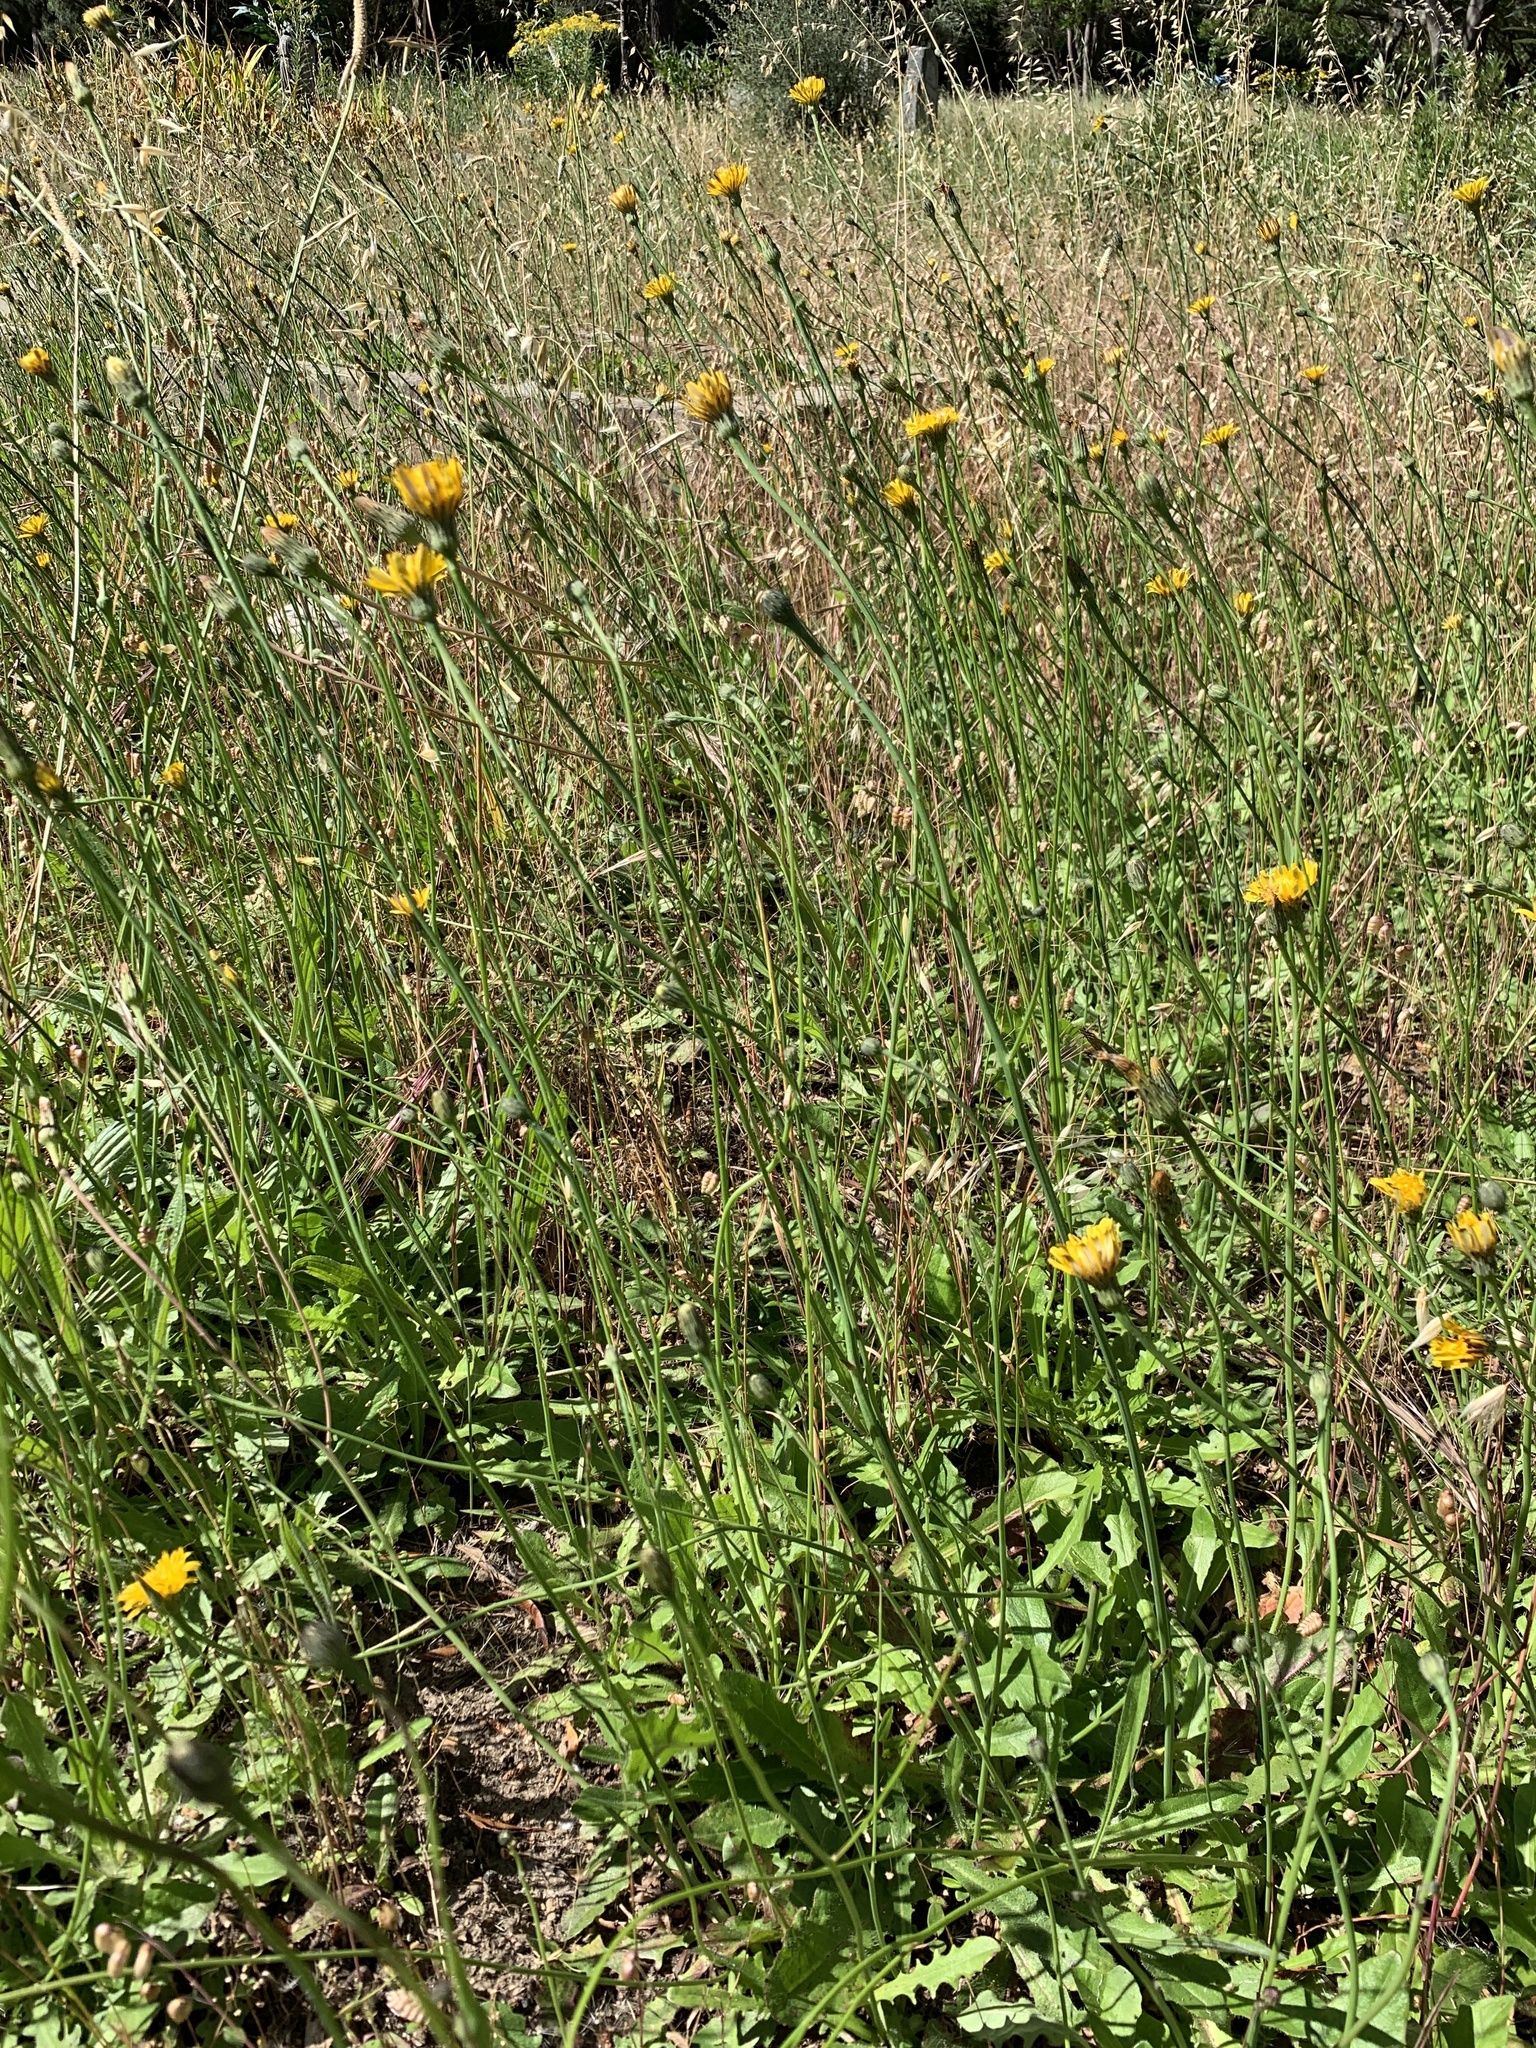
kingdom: Plantae
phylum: Tracheophyta
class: Magnoliopsida
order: Asterales
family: Asteraceae
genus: Hypochaeris
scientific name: Hypochaeris radicata
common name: Flatweed
